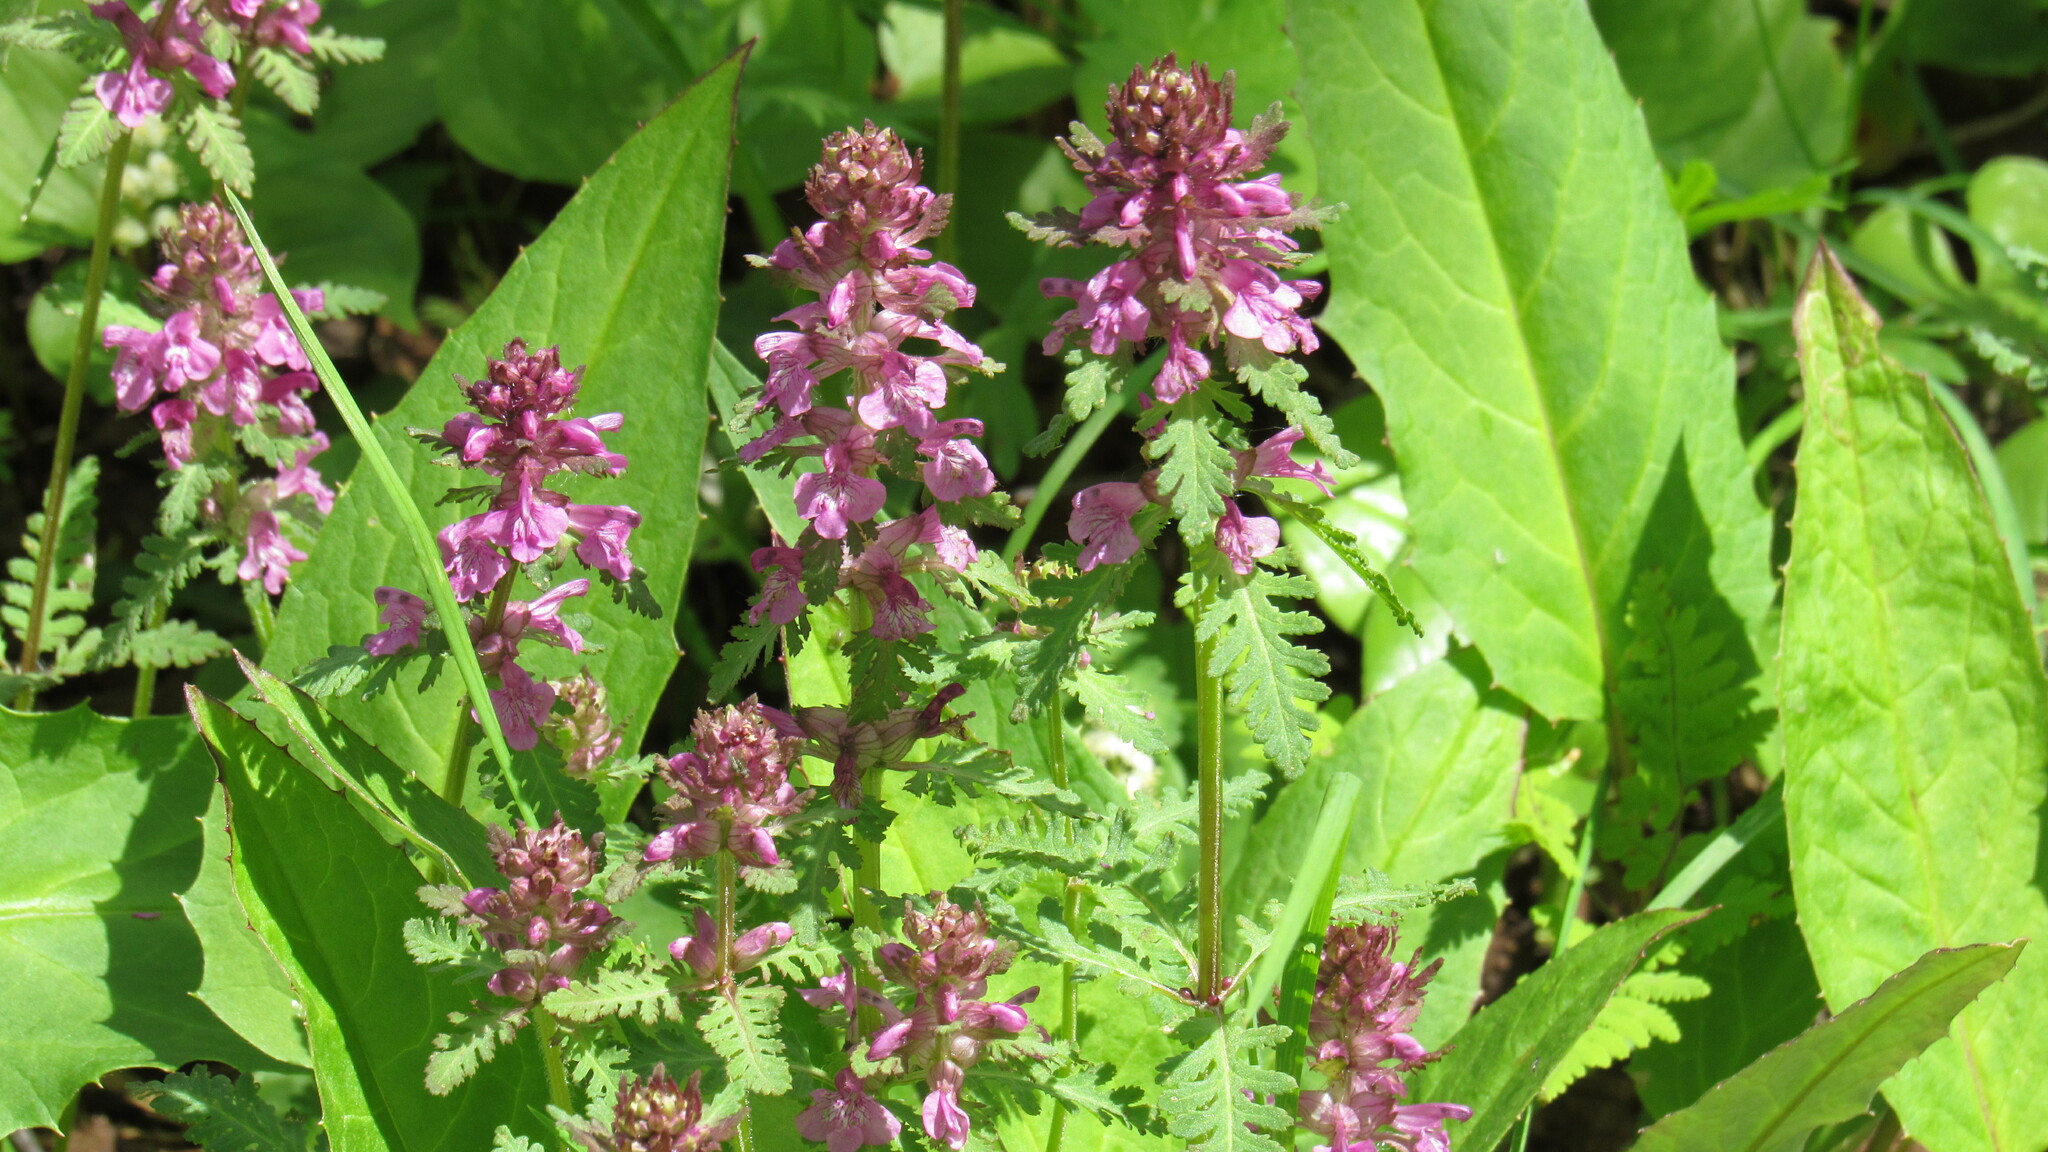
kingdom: Plantae
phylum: Tracheophyta
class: Magnoliopsida
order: Lamiales
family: Orobanchaceae
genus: Pedicularis
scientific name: Pedicularis verticillata
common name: Whorled lousewort
